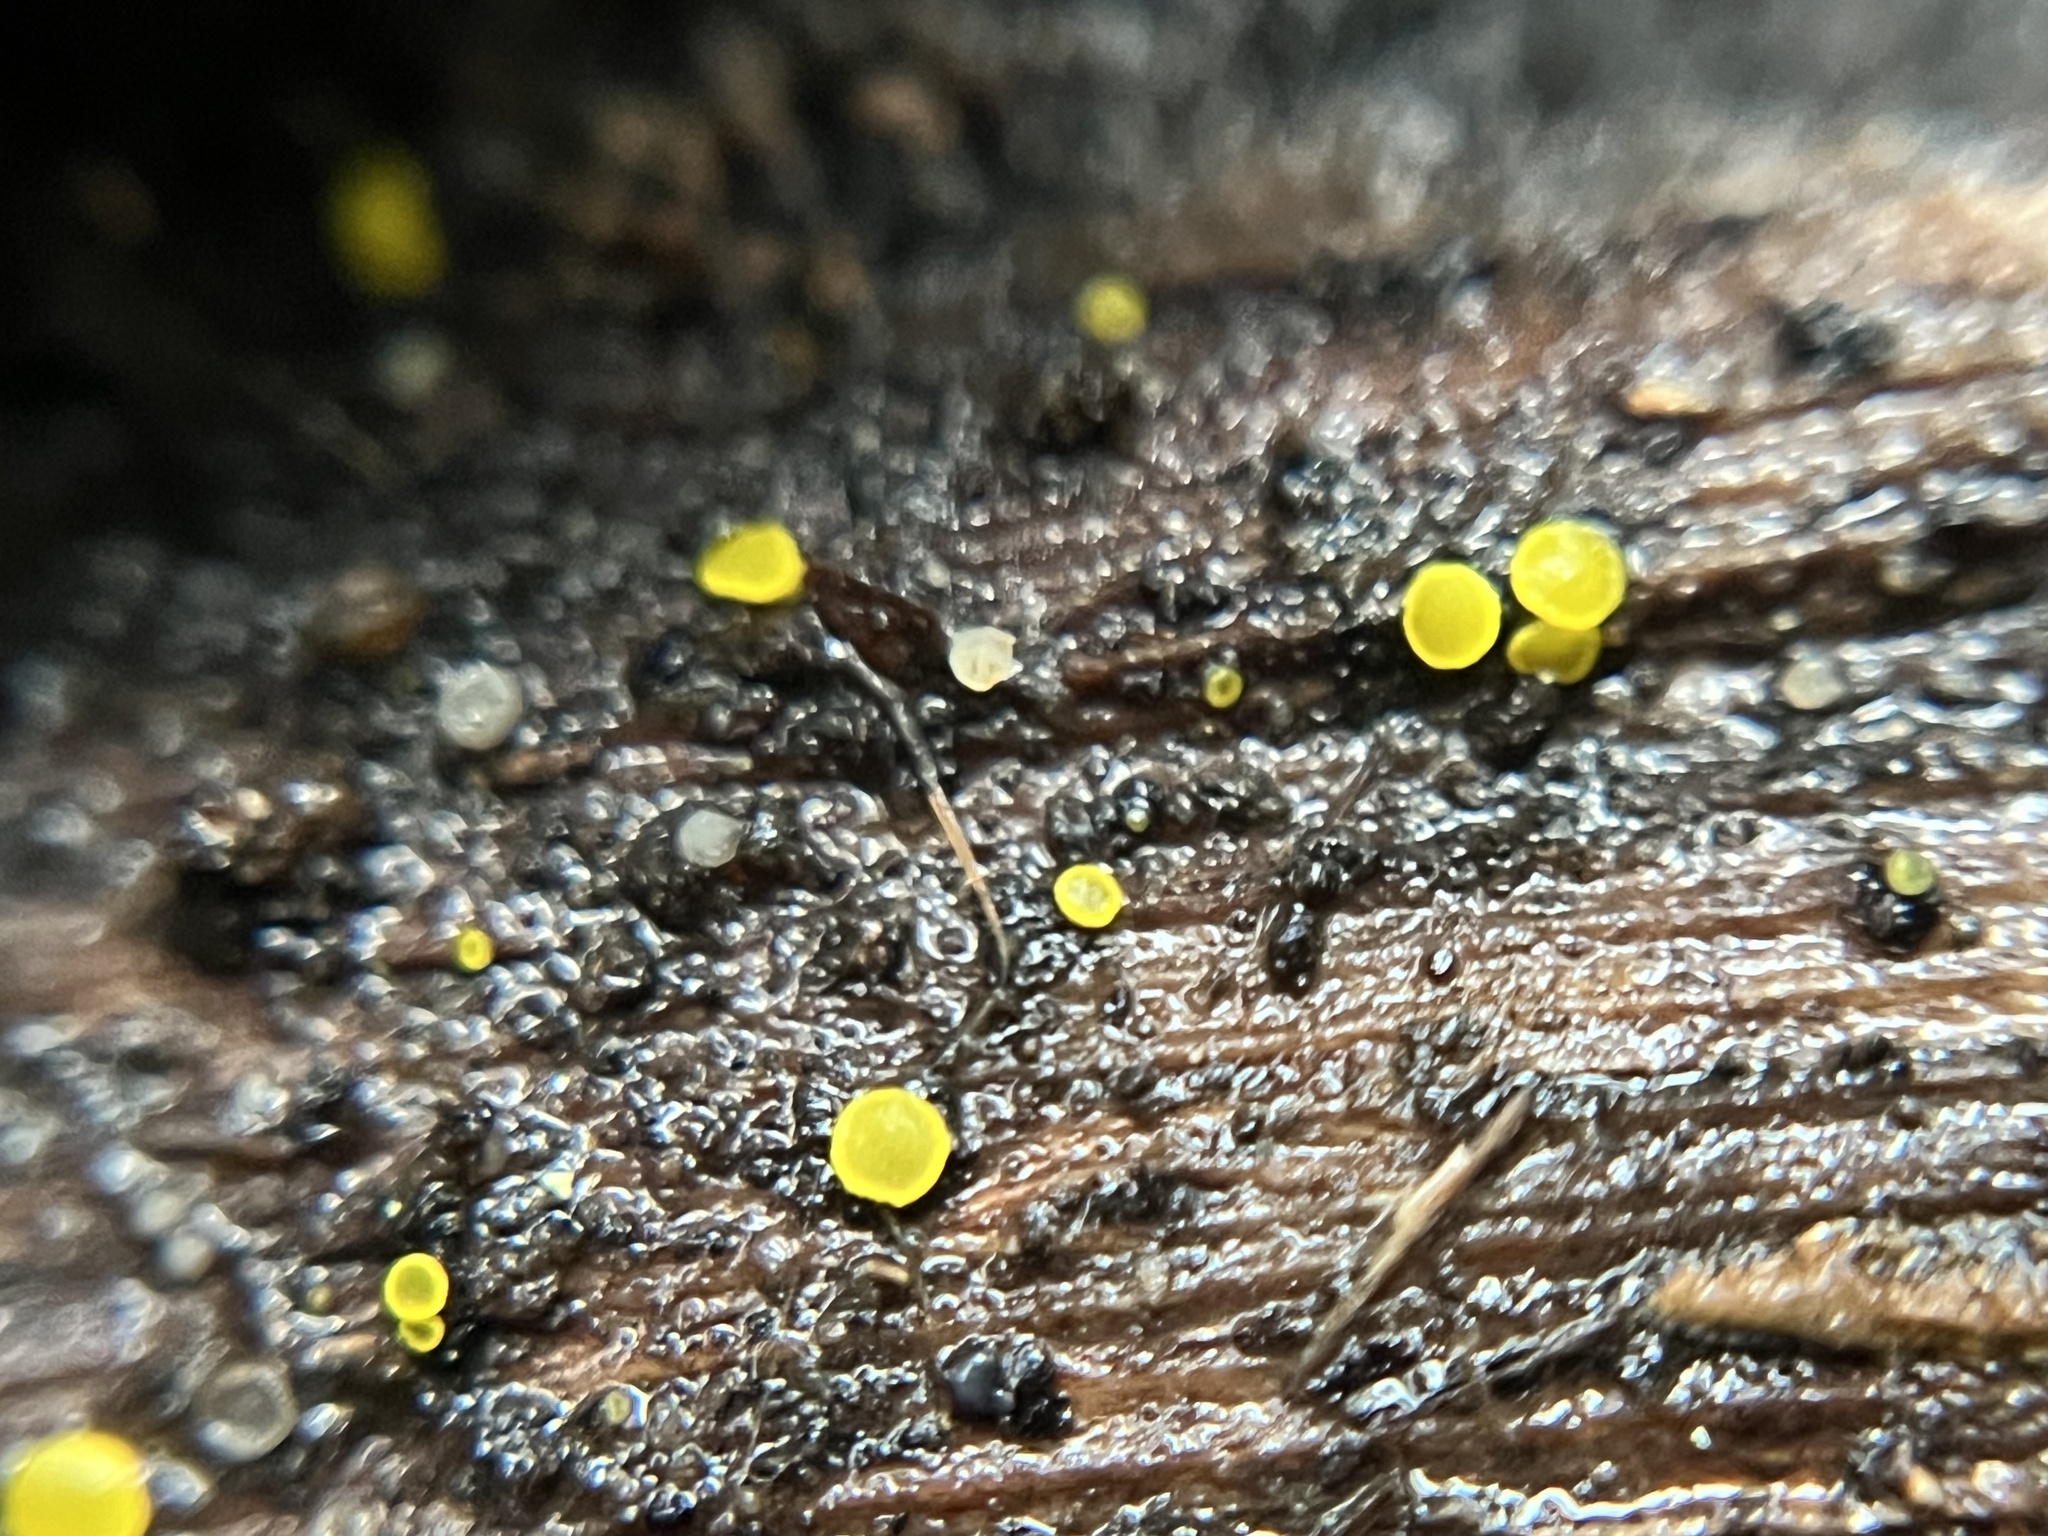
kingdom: Fungi
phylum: Ascomycota
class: Leotiomycetes
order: Helotiales
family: Pezizellaceae
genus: Calycina
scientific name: Calycina claroflava
